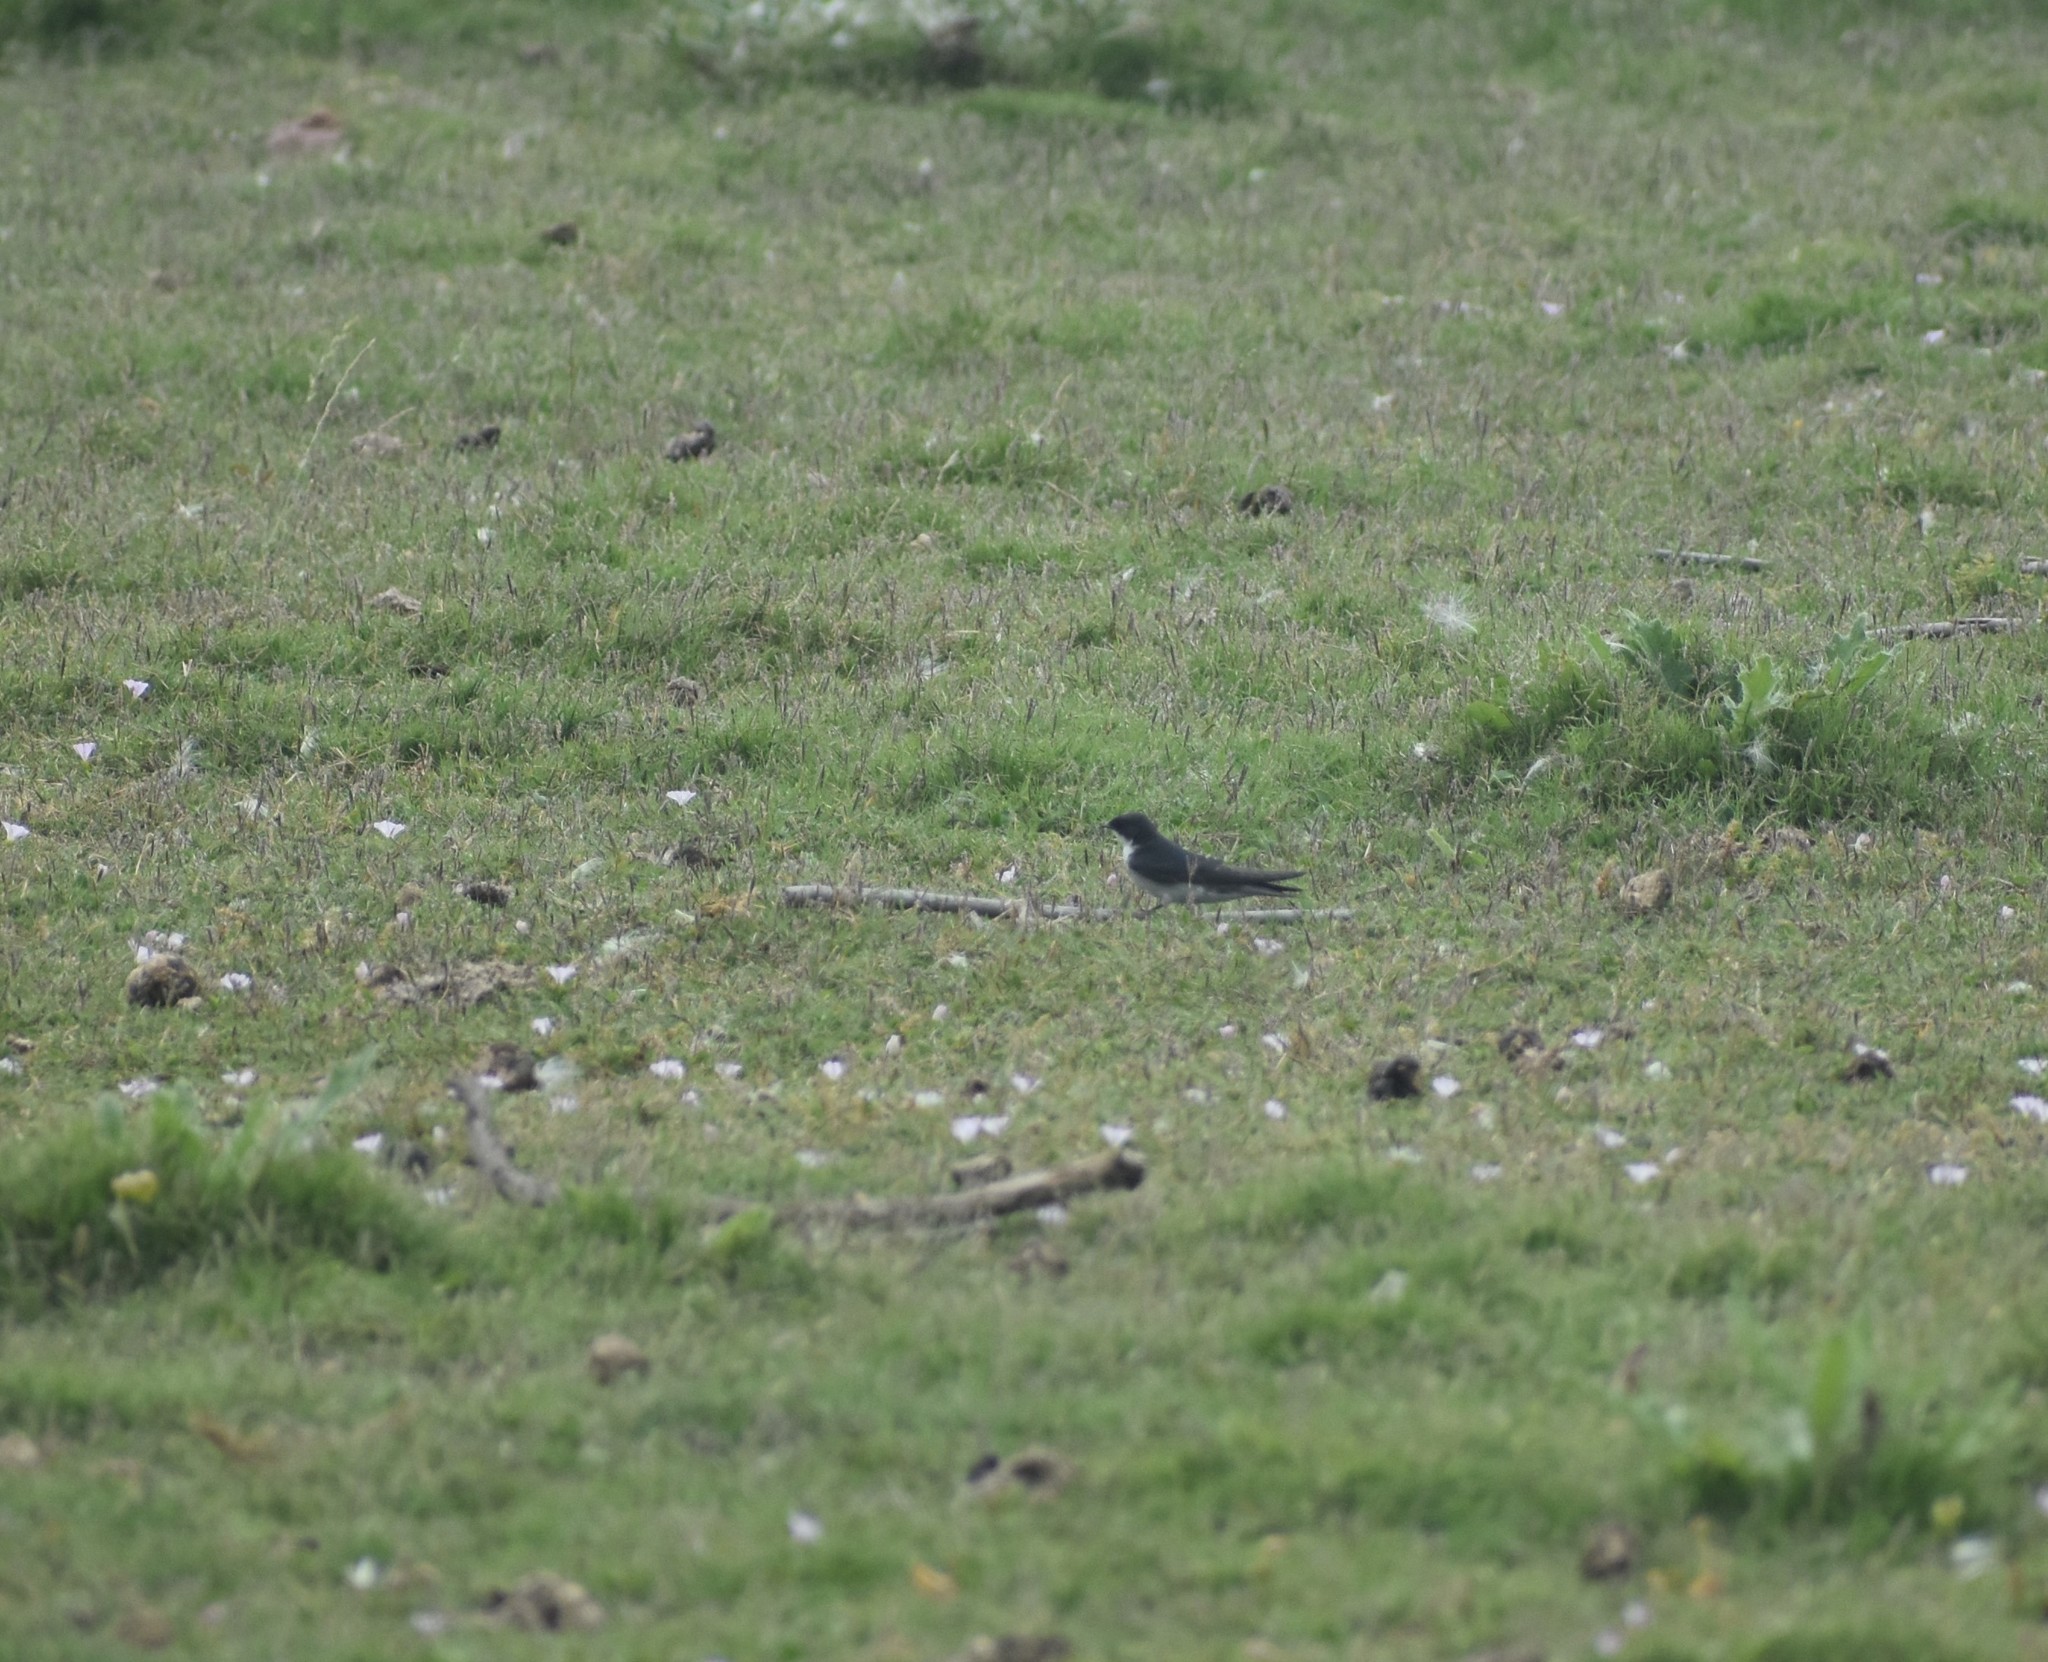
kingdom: Animalia
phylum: Chordata
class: Aves
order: Passeriformes
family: Hirundinidae
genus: Hirundo
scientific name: Hirundo dimidiata
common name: Pearl-breasted swallow
